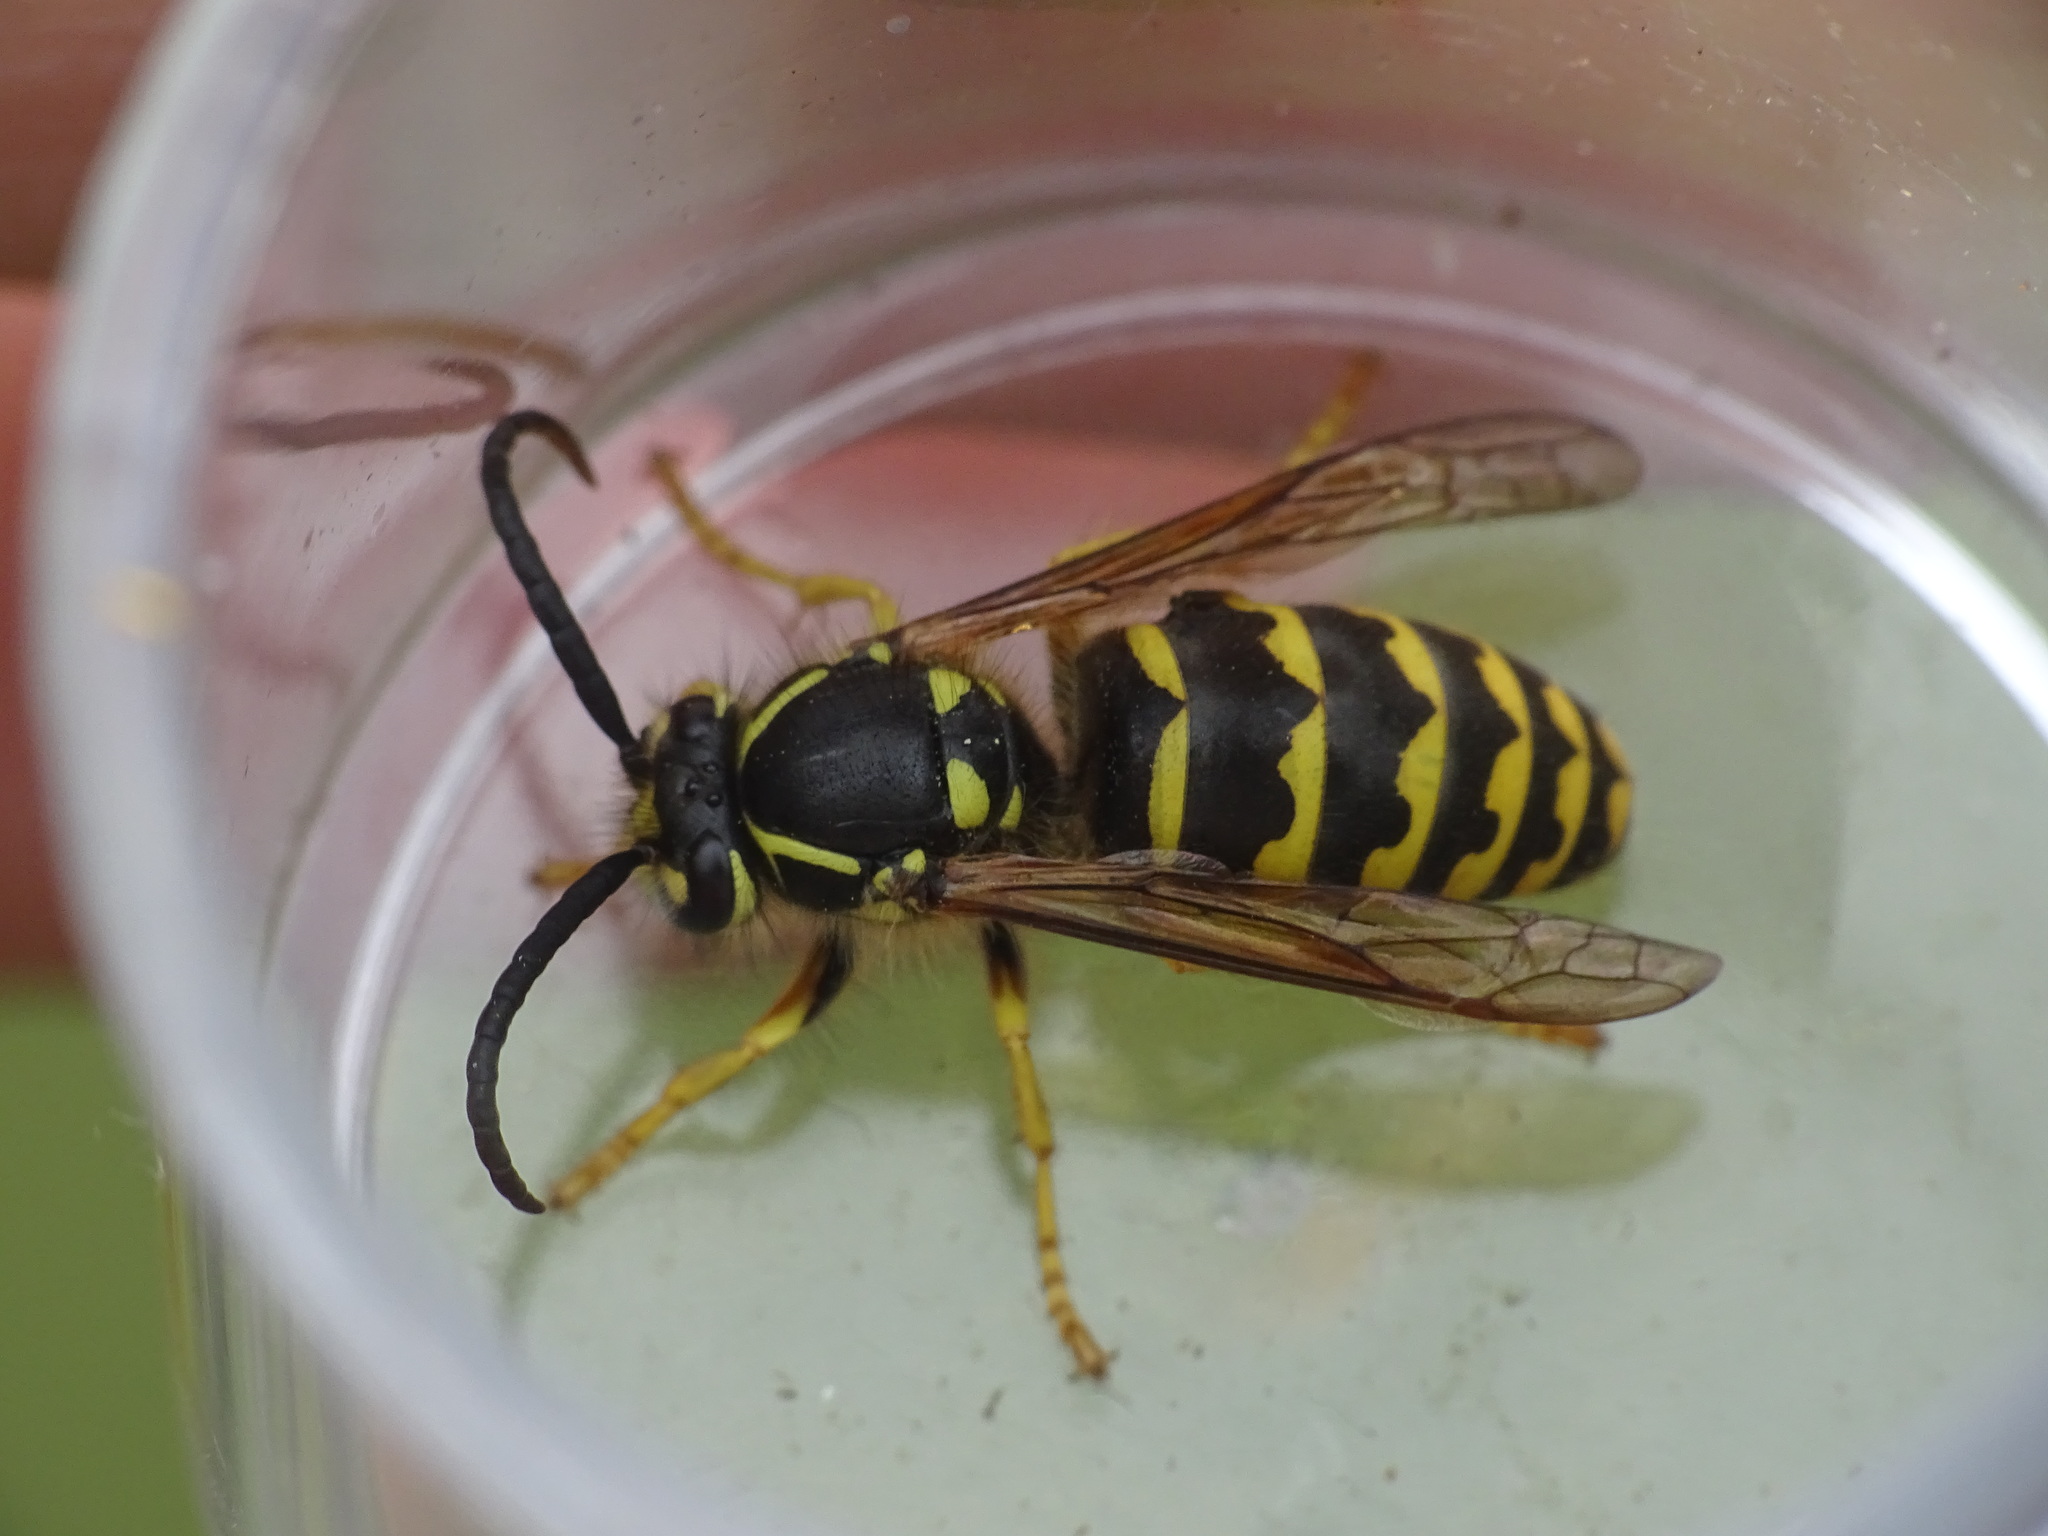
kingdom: Animalia
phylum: Arthropoda
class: Insecta
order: Hymenoptera
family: Vespidae
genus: Dolichovespula
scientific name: Dolichovespula arenaria
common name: Aerial yellowjacket
